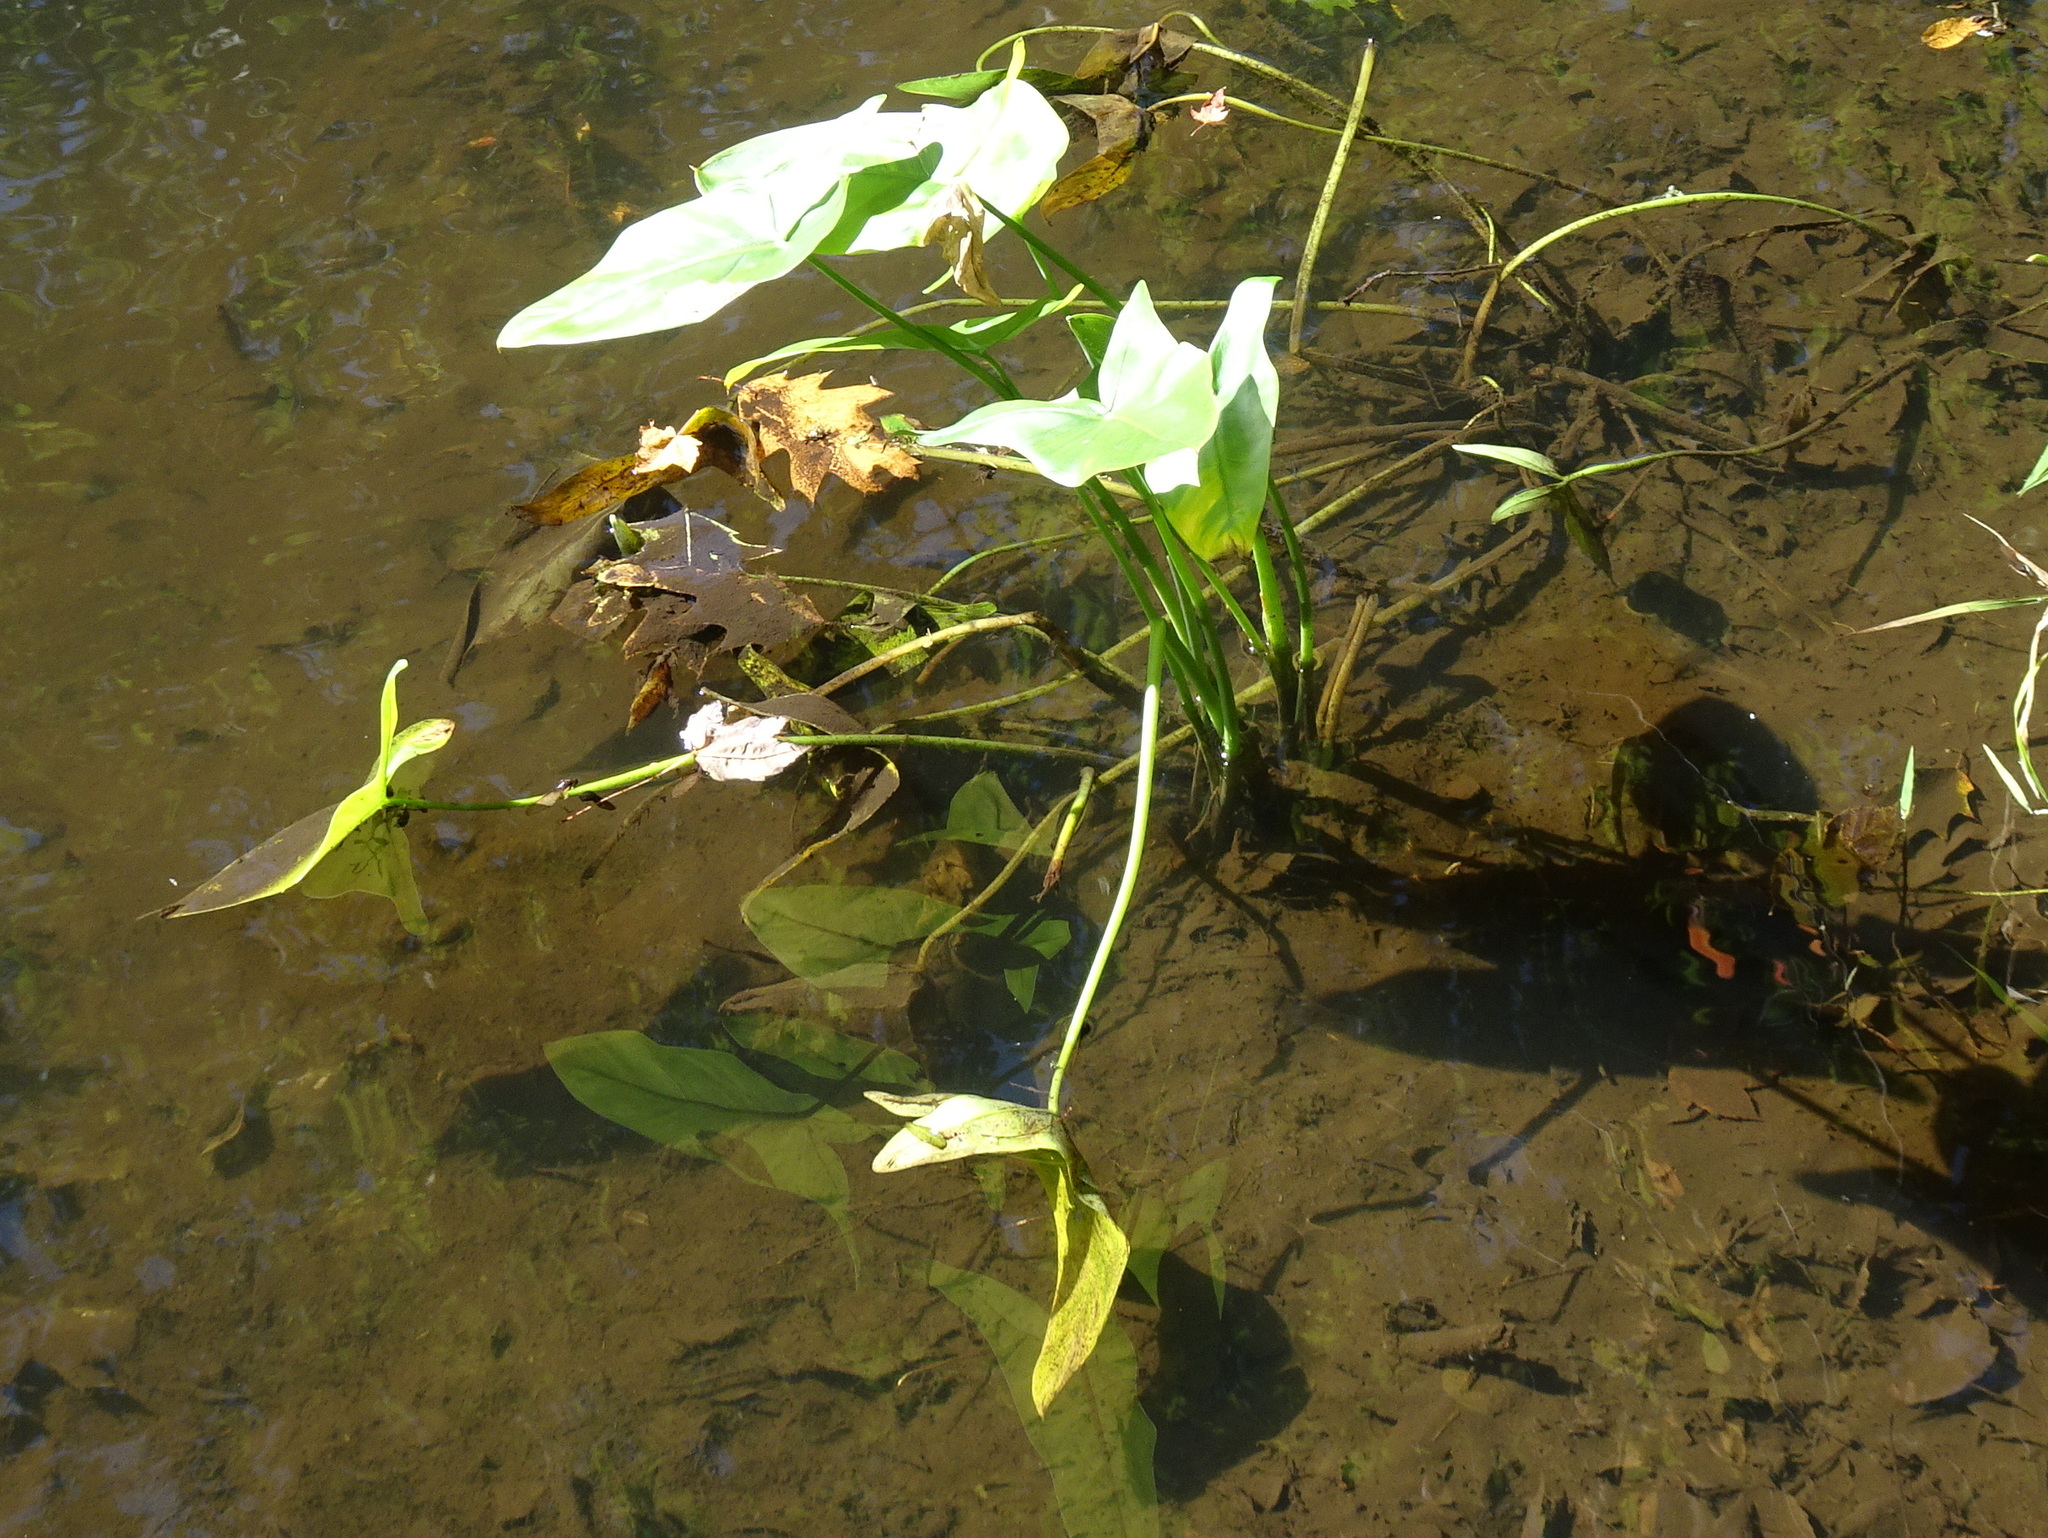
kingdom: Plantae
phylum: Tracheophyta
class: Liliopsida
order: Alismatales
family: Araceae
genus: Peltandra
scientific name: Peltandra virginica
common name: Arrow arum
